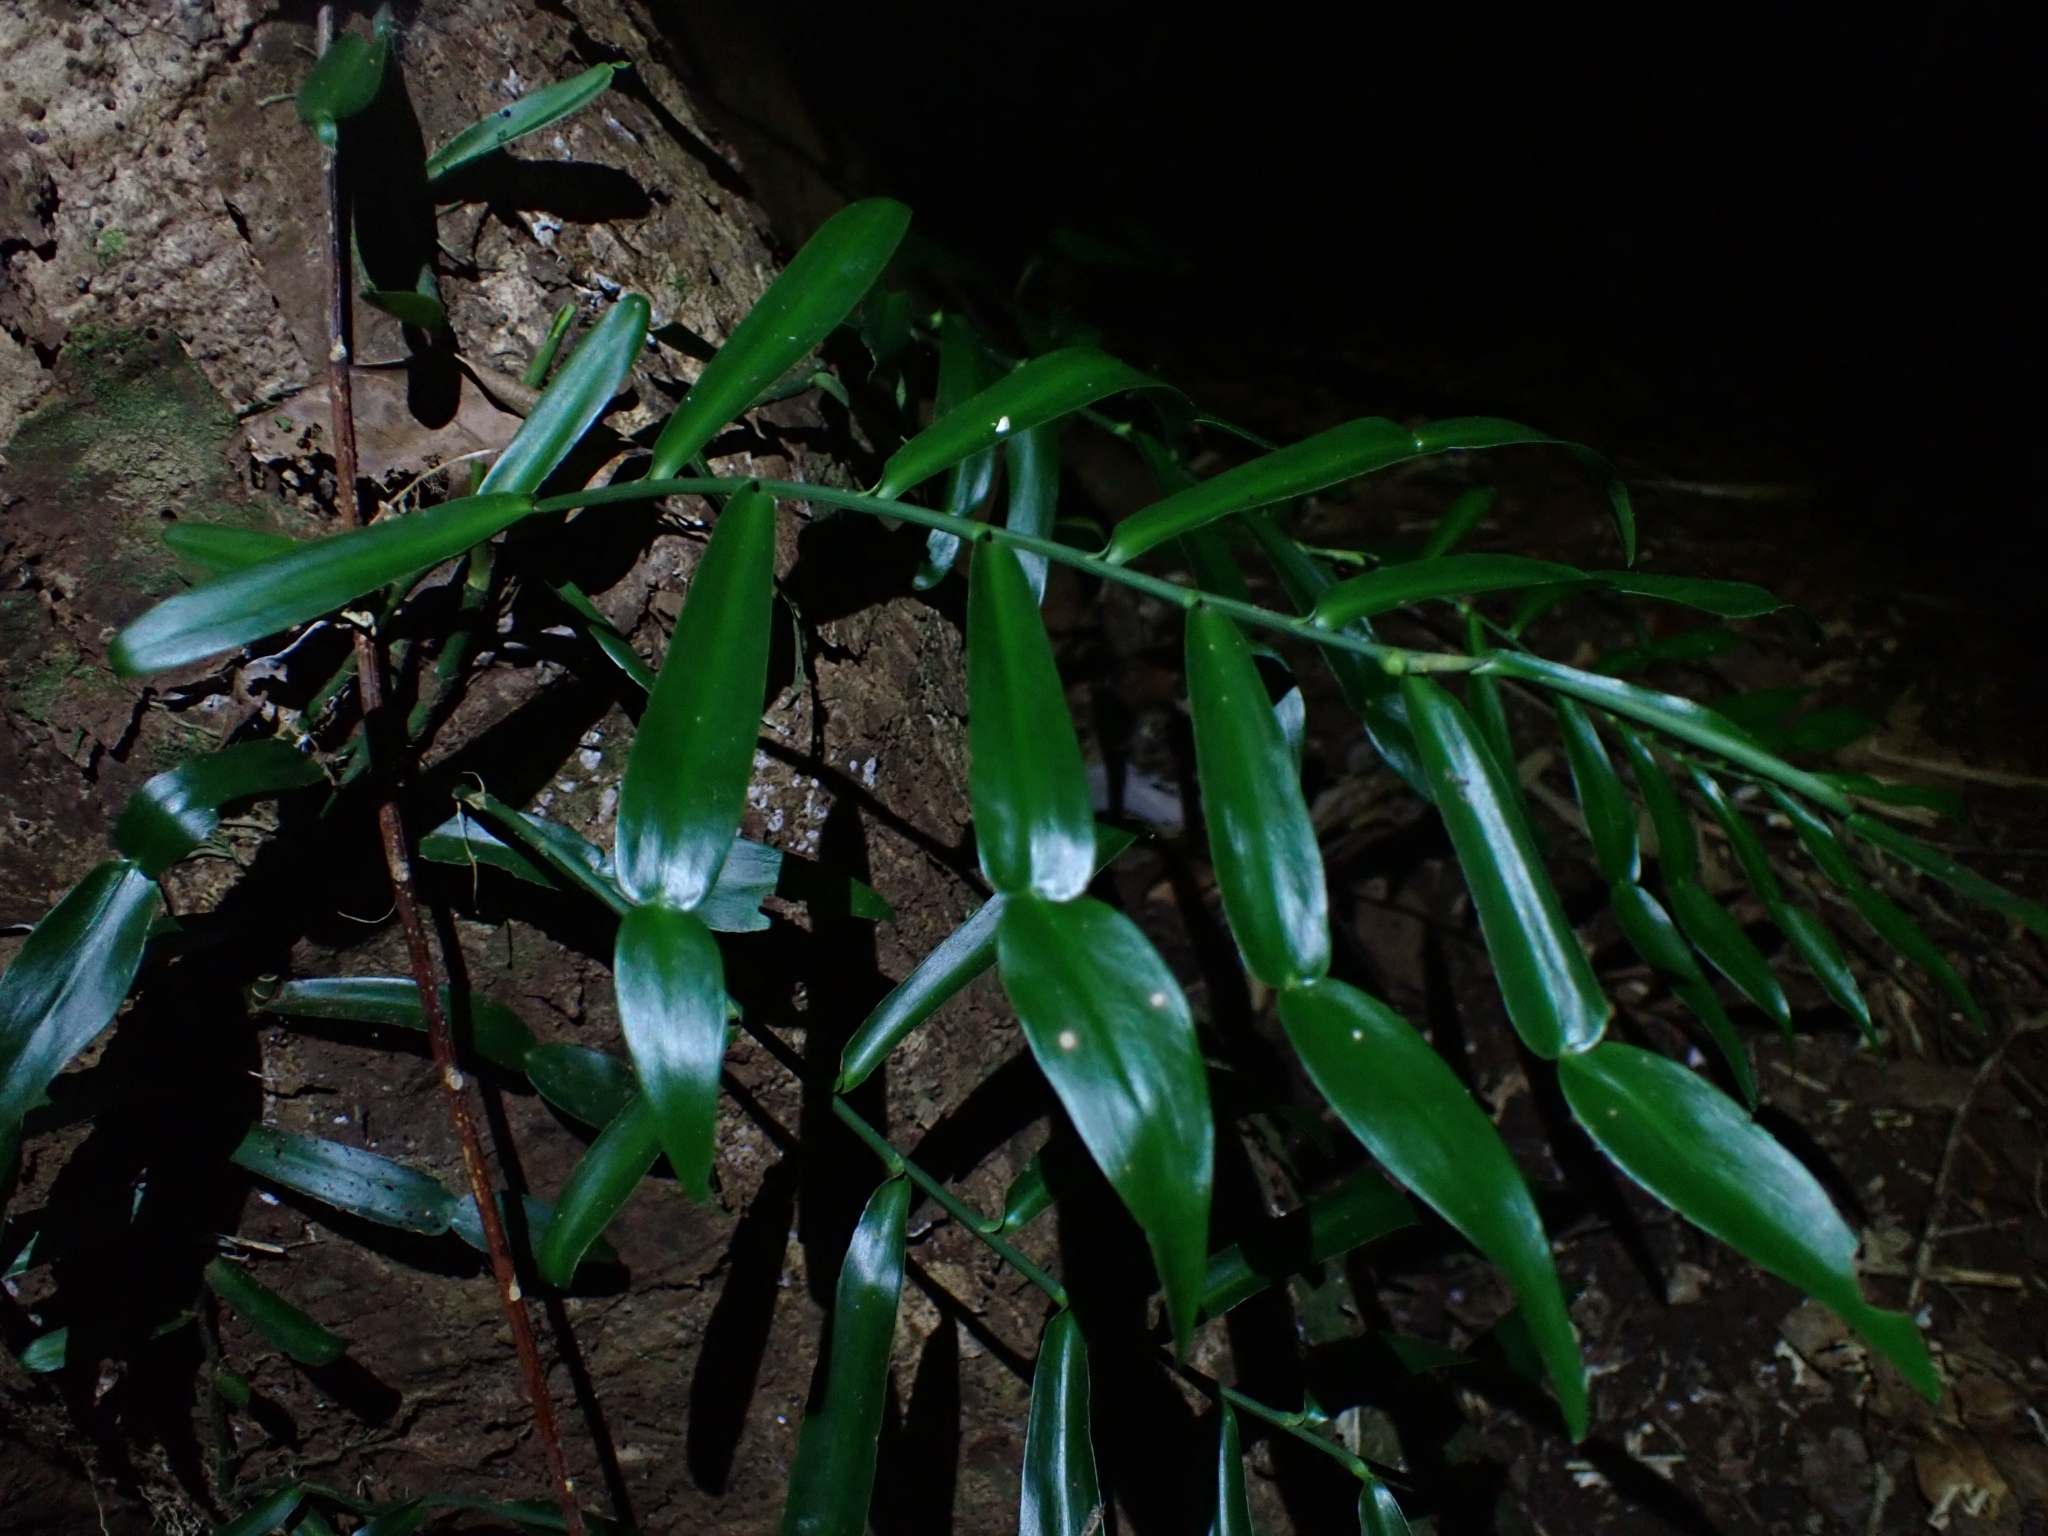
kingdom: Plantae
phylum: Tracheophyta
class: Liliopsida
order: Alismatales
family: Araceae
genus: Pothos
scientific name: Pothos longipes
